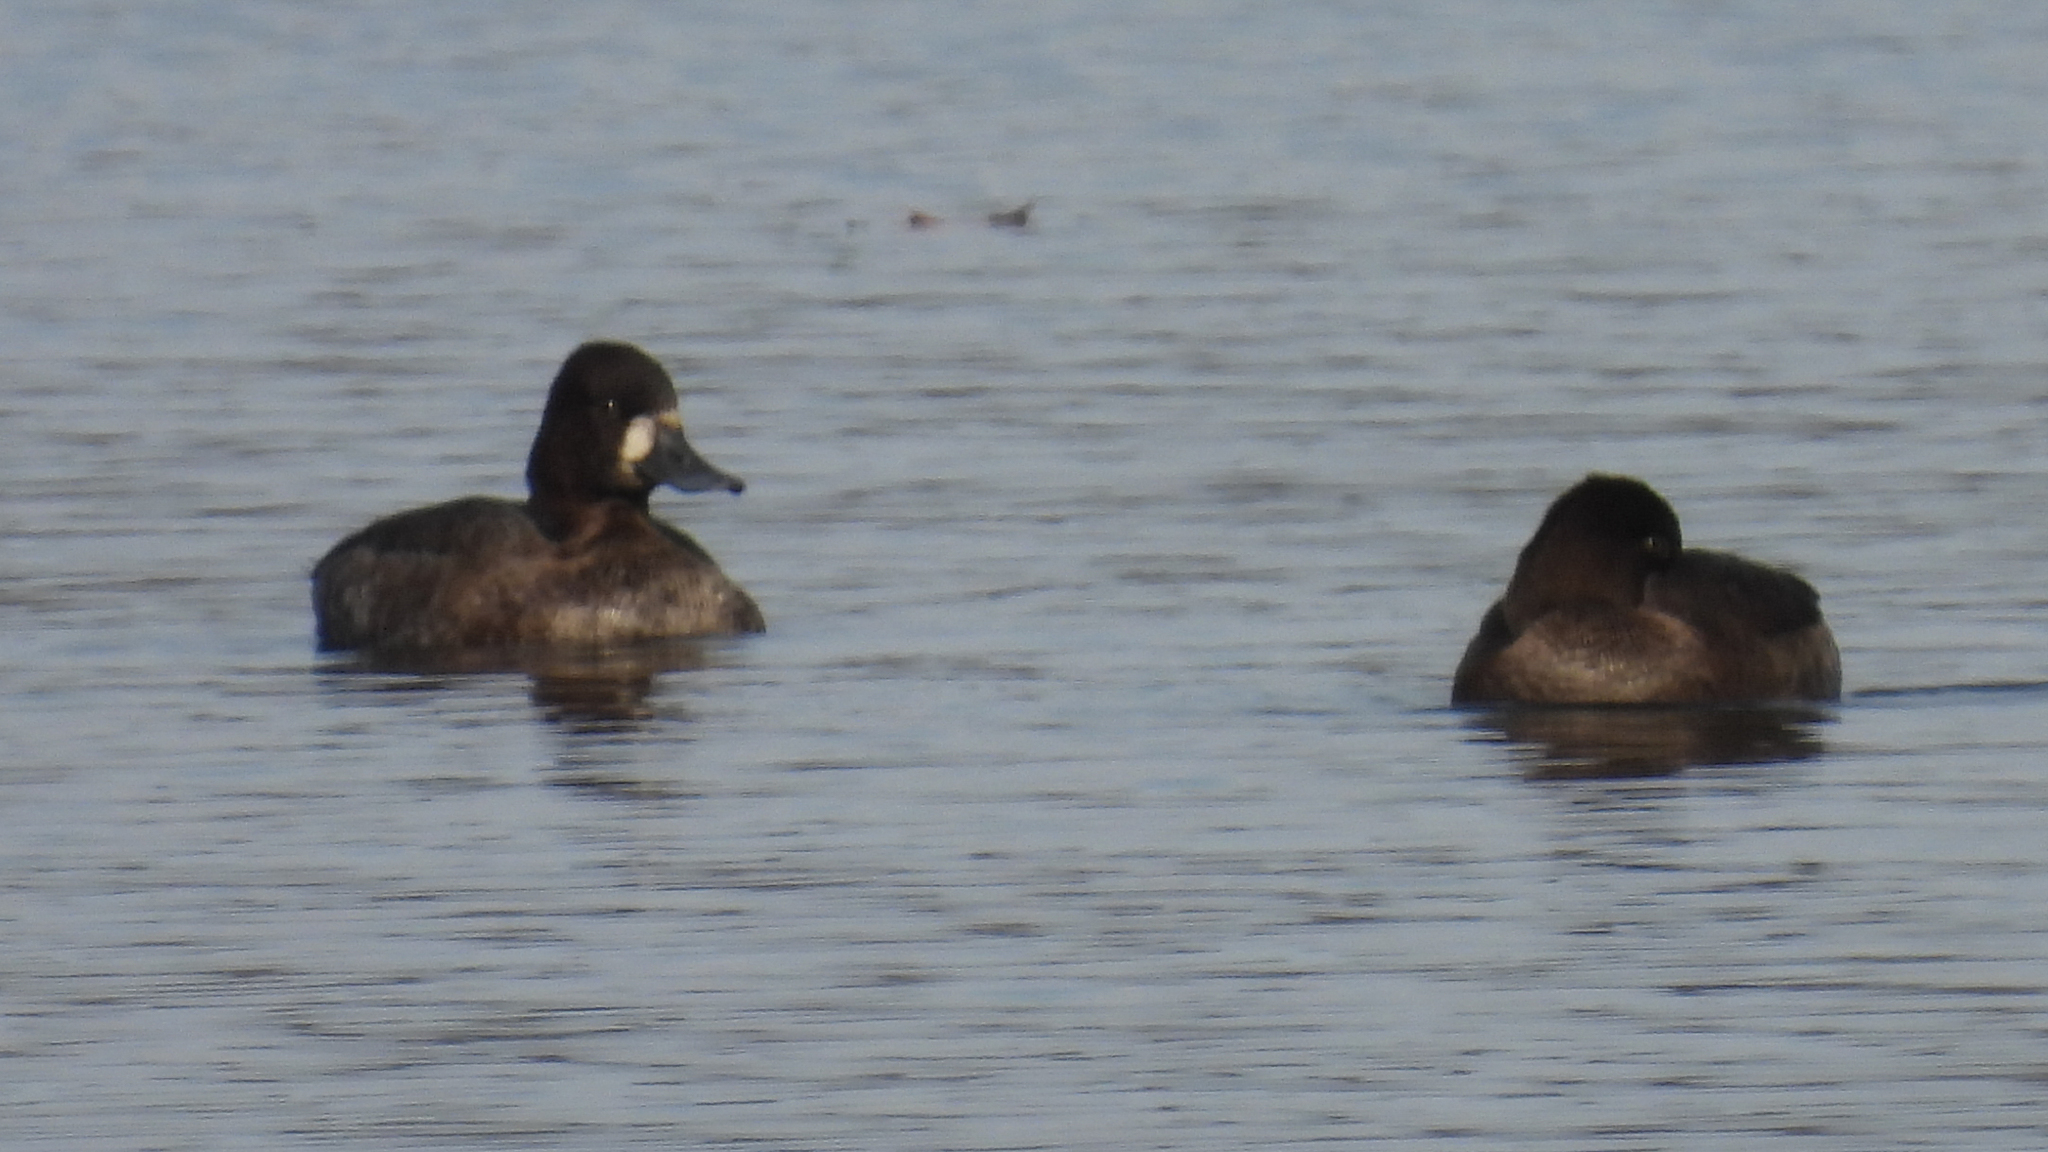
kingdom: Animalia
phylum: Chordata
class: Aves
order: Anseriformes
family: Anatidae
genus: Aythya
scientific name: Aythya affinis
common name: Lesser scaup
